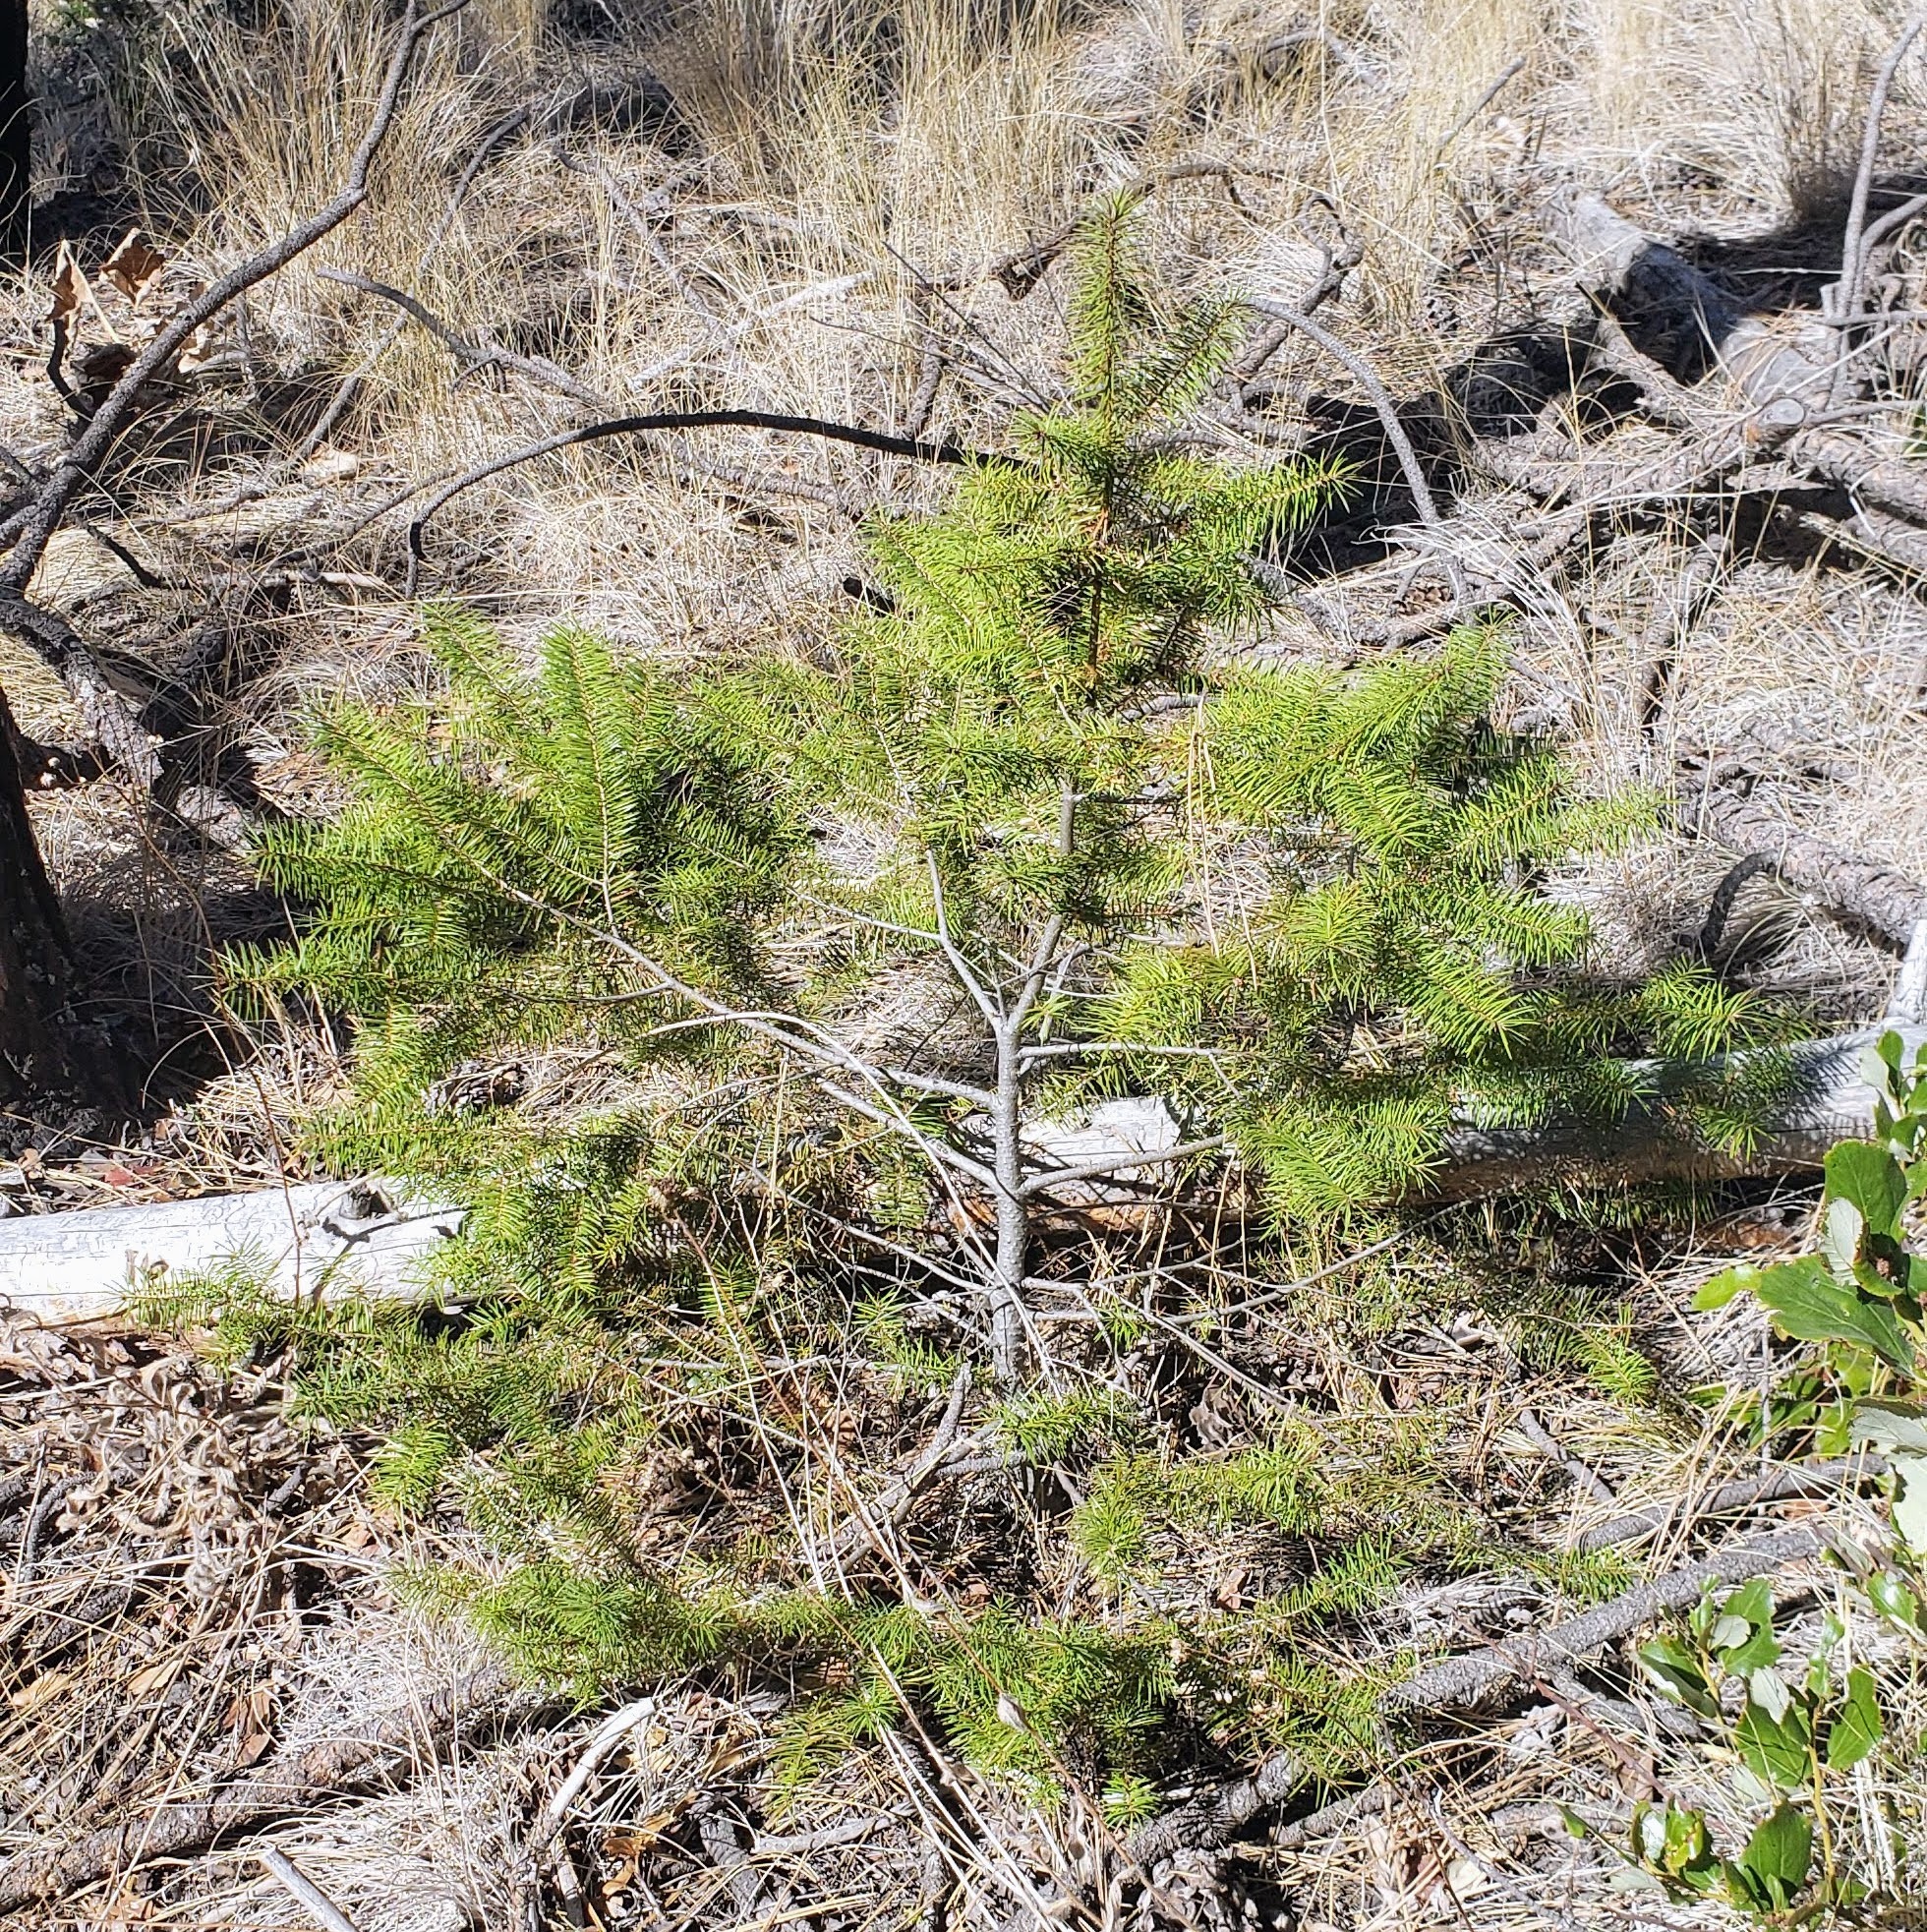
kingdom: Plantae
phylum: Tracheophyta
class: Pinopsida
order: Pinales
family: Pinaceae
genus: Pseudotsuga
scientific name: Pseudotsuga menziesii
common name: Douglas fir
